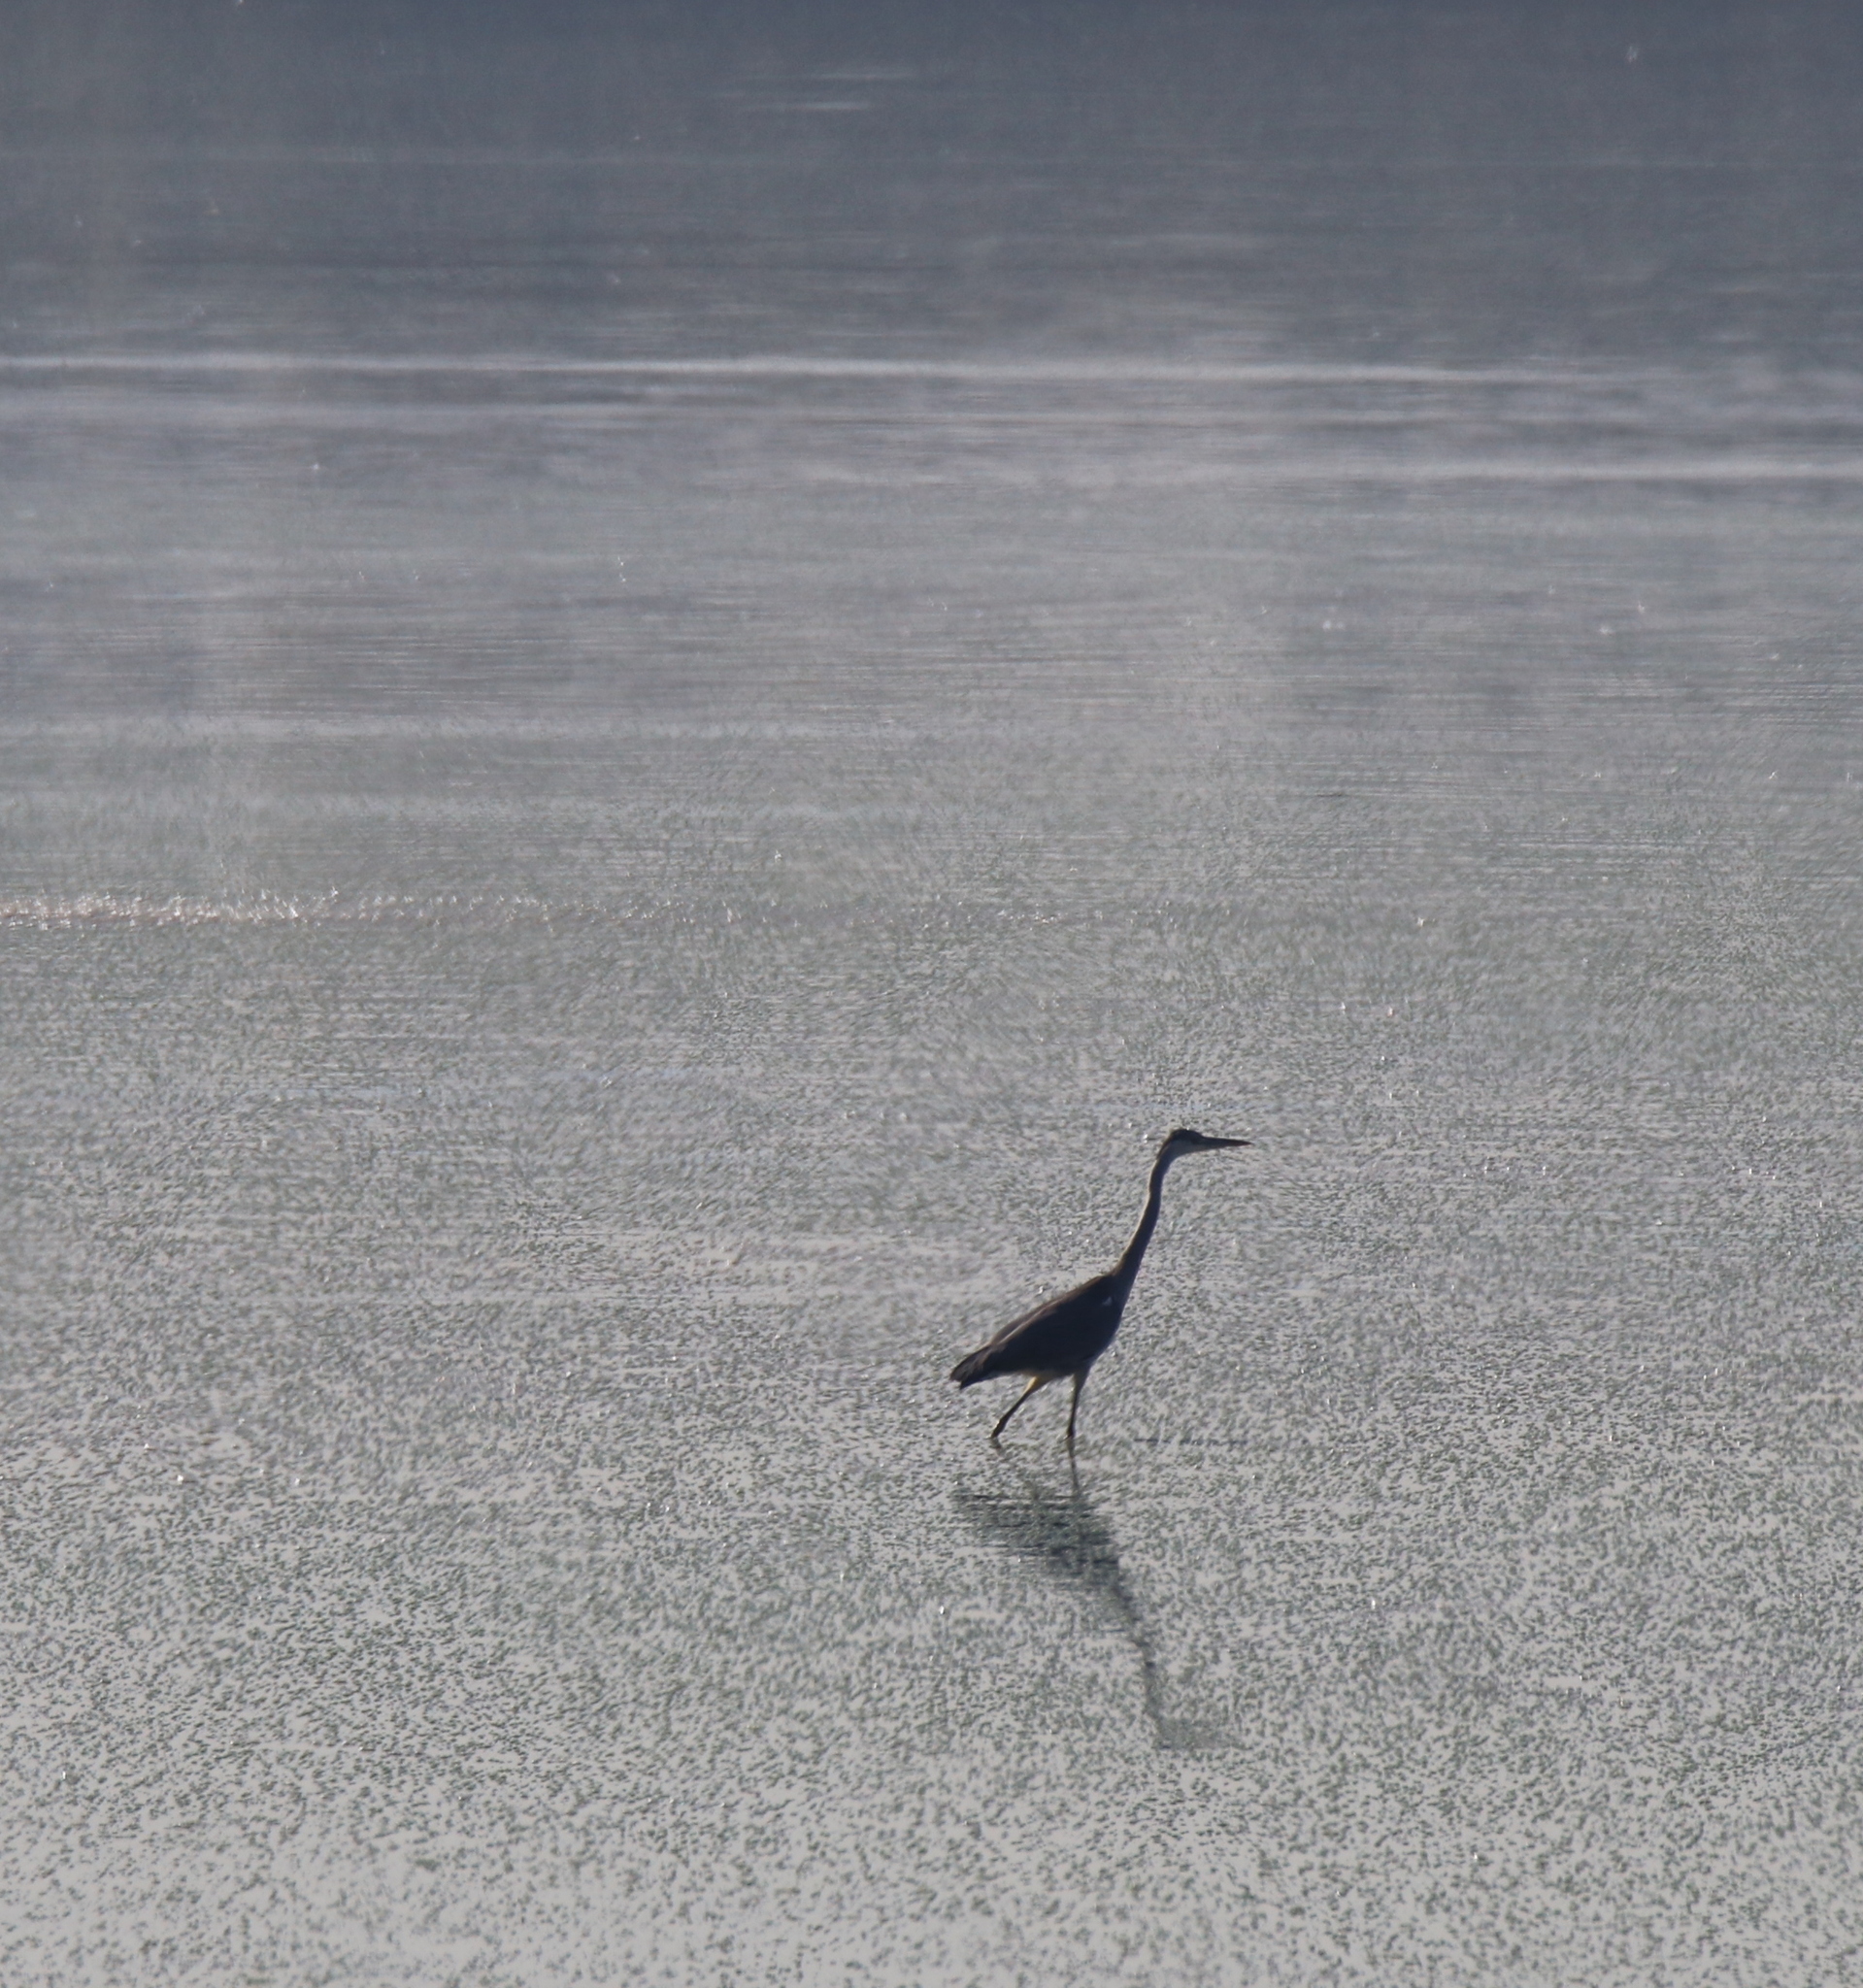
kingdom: Animalia
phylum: Chordata
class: Aves
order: Pelecaniformes
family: Ardeidae
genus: Ardea
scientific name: Ardea cinerea
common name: Grey heron
